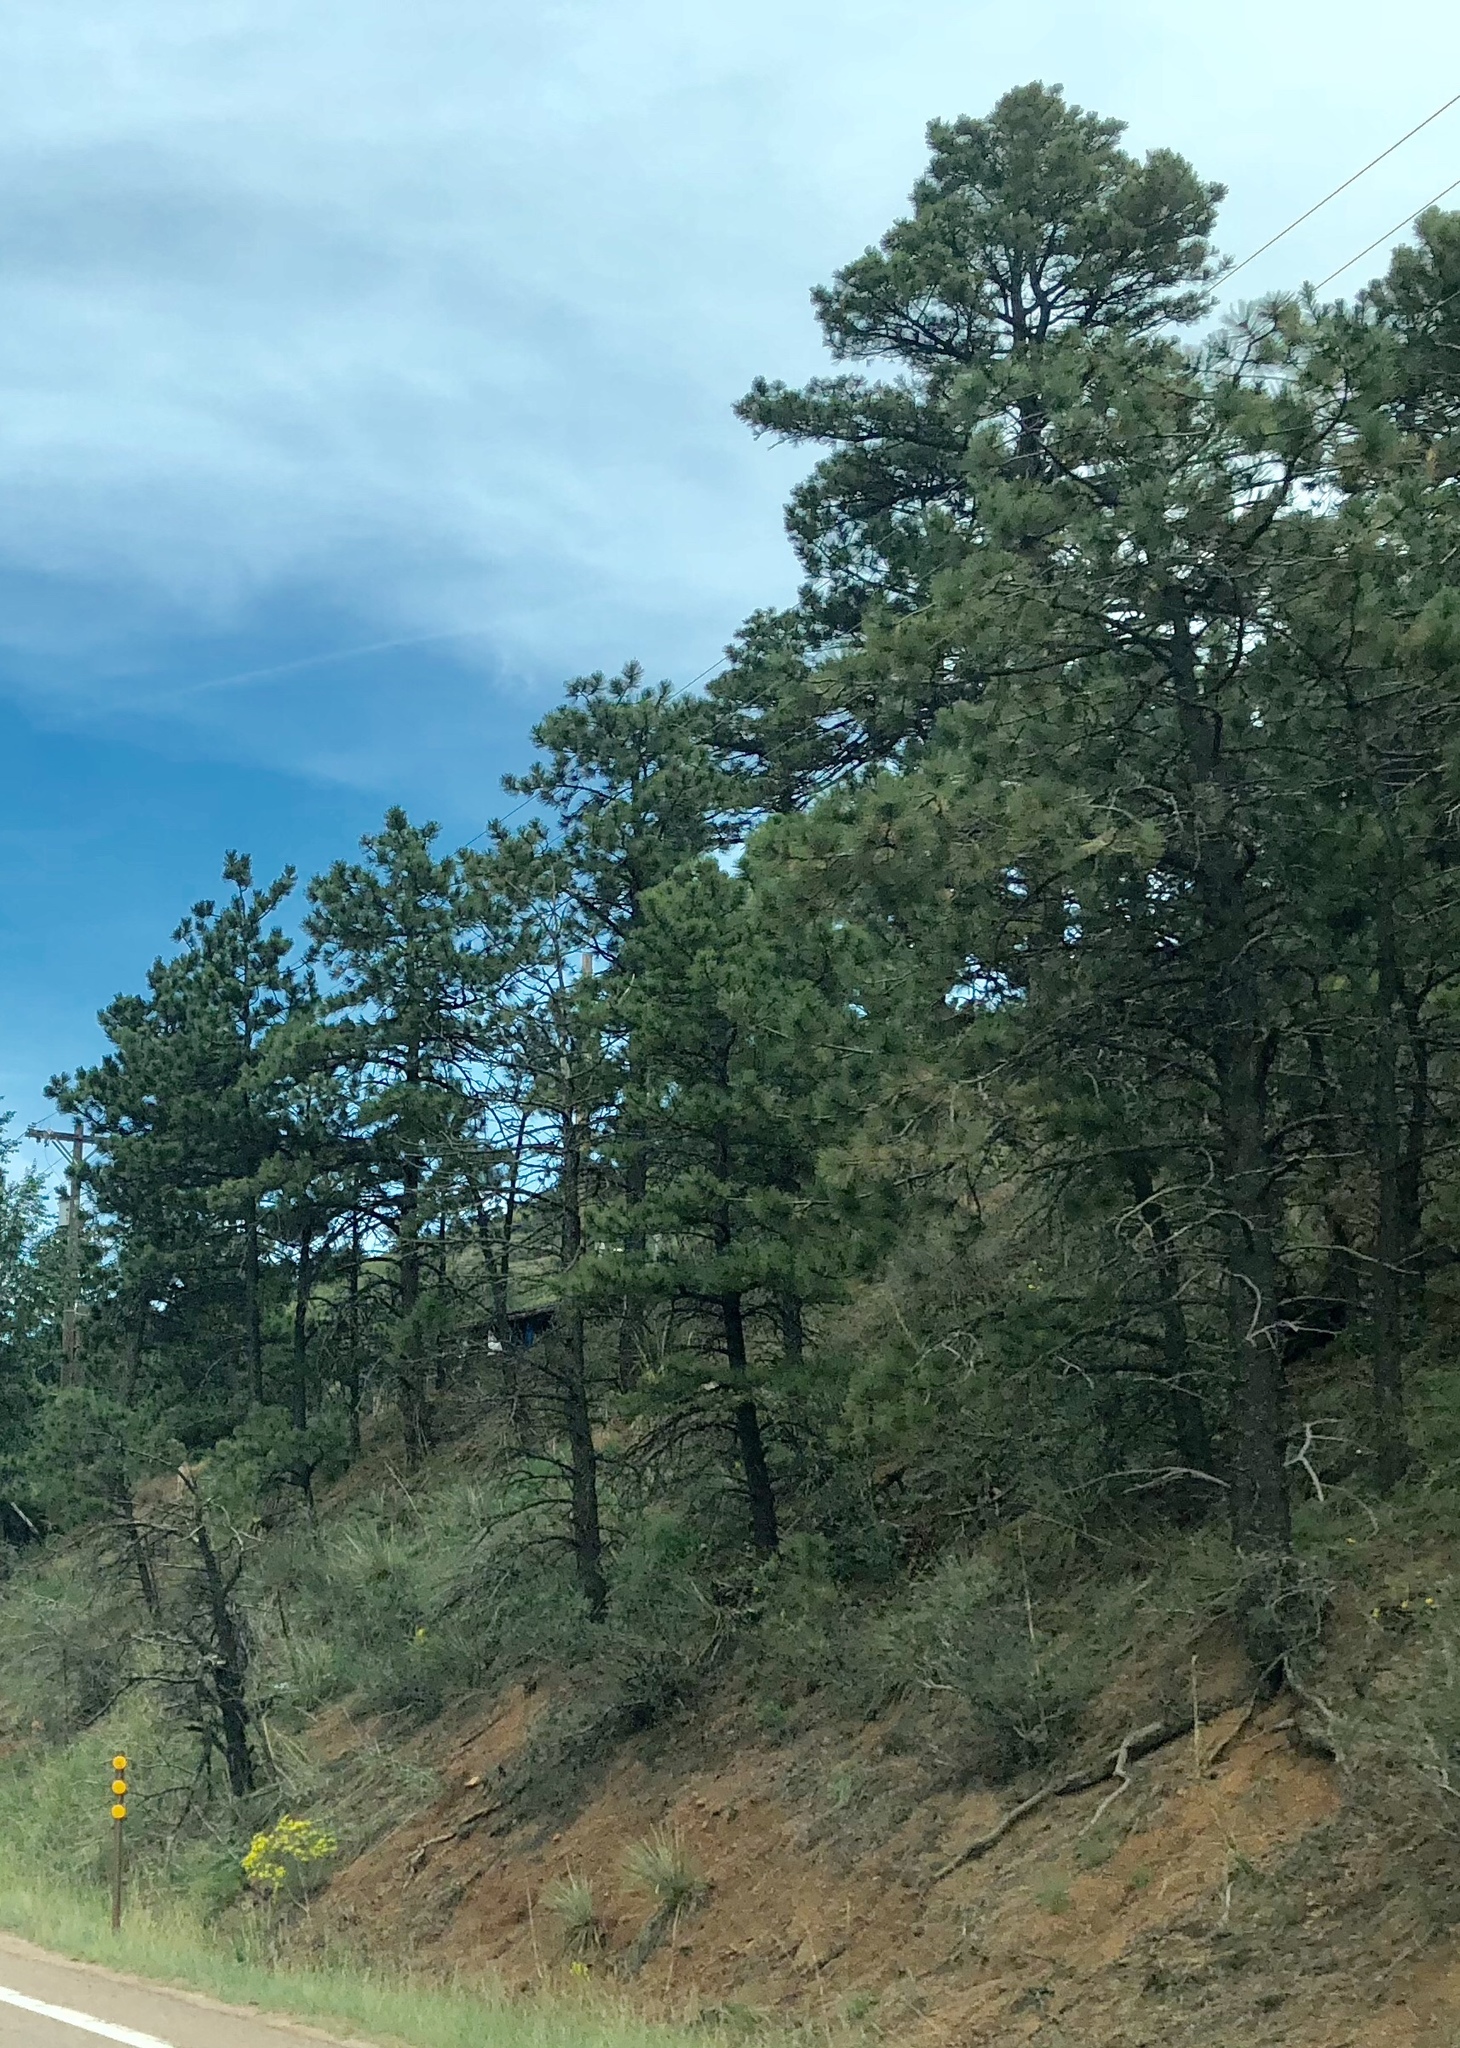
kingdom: Plantae
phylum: Tracheophyta
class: Pinopsida
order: Pinales
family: Pinaceae
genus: Pinus
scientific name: Pinus ponderosa
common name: Western yellow-pine
